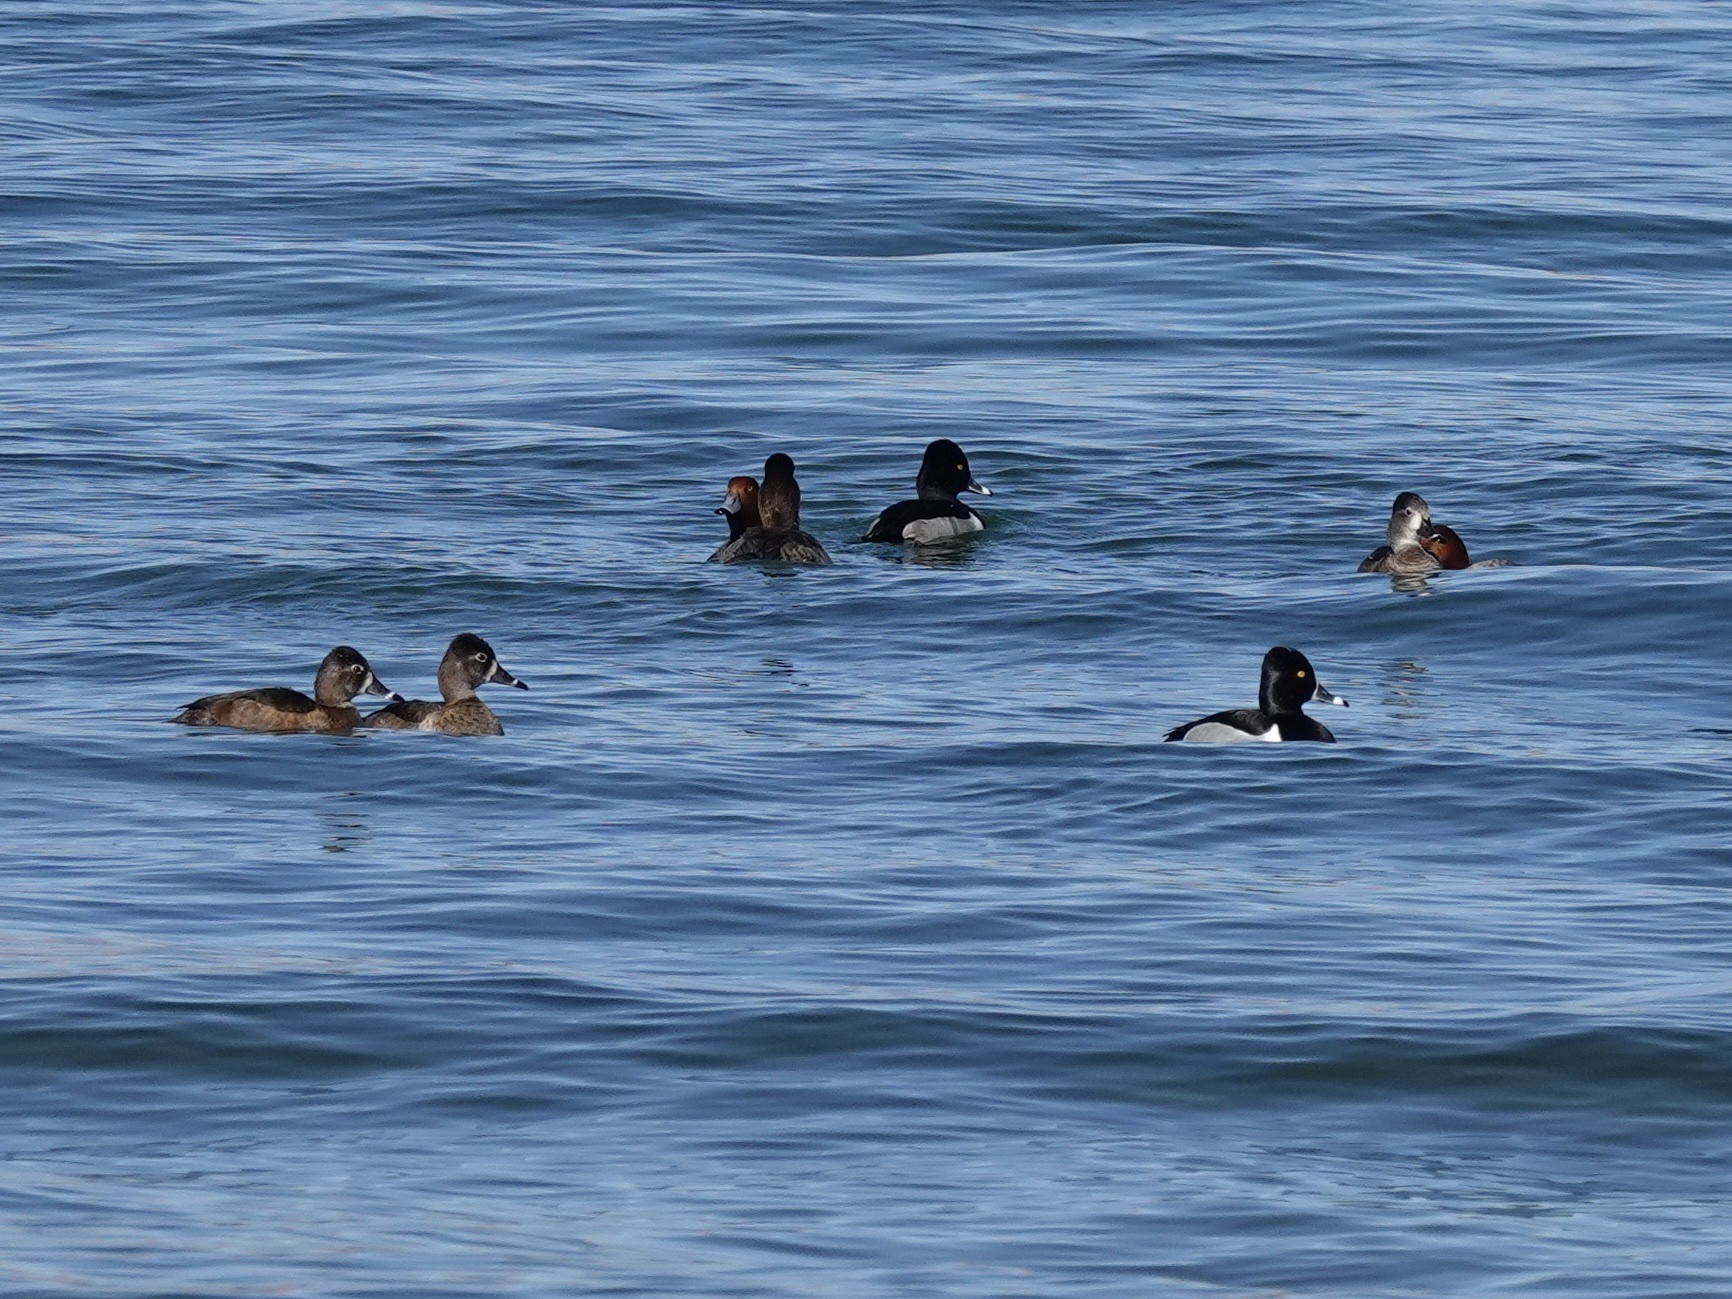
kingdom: Animalia
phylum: Chordata
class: Aves
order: Anseriformes
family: Anatidae
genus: Aythya
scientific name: Aythya collaris
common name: Ring-necked duck
